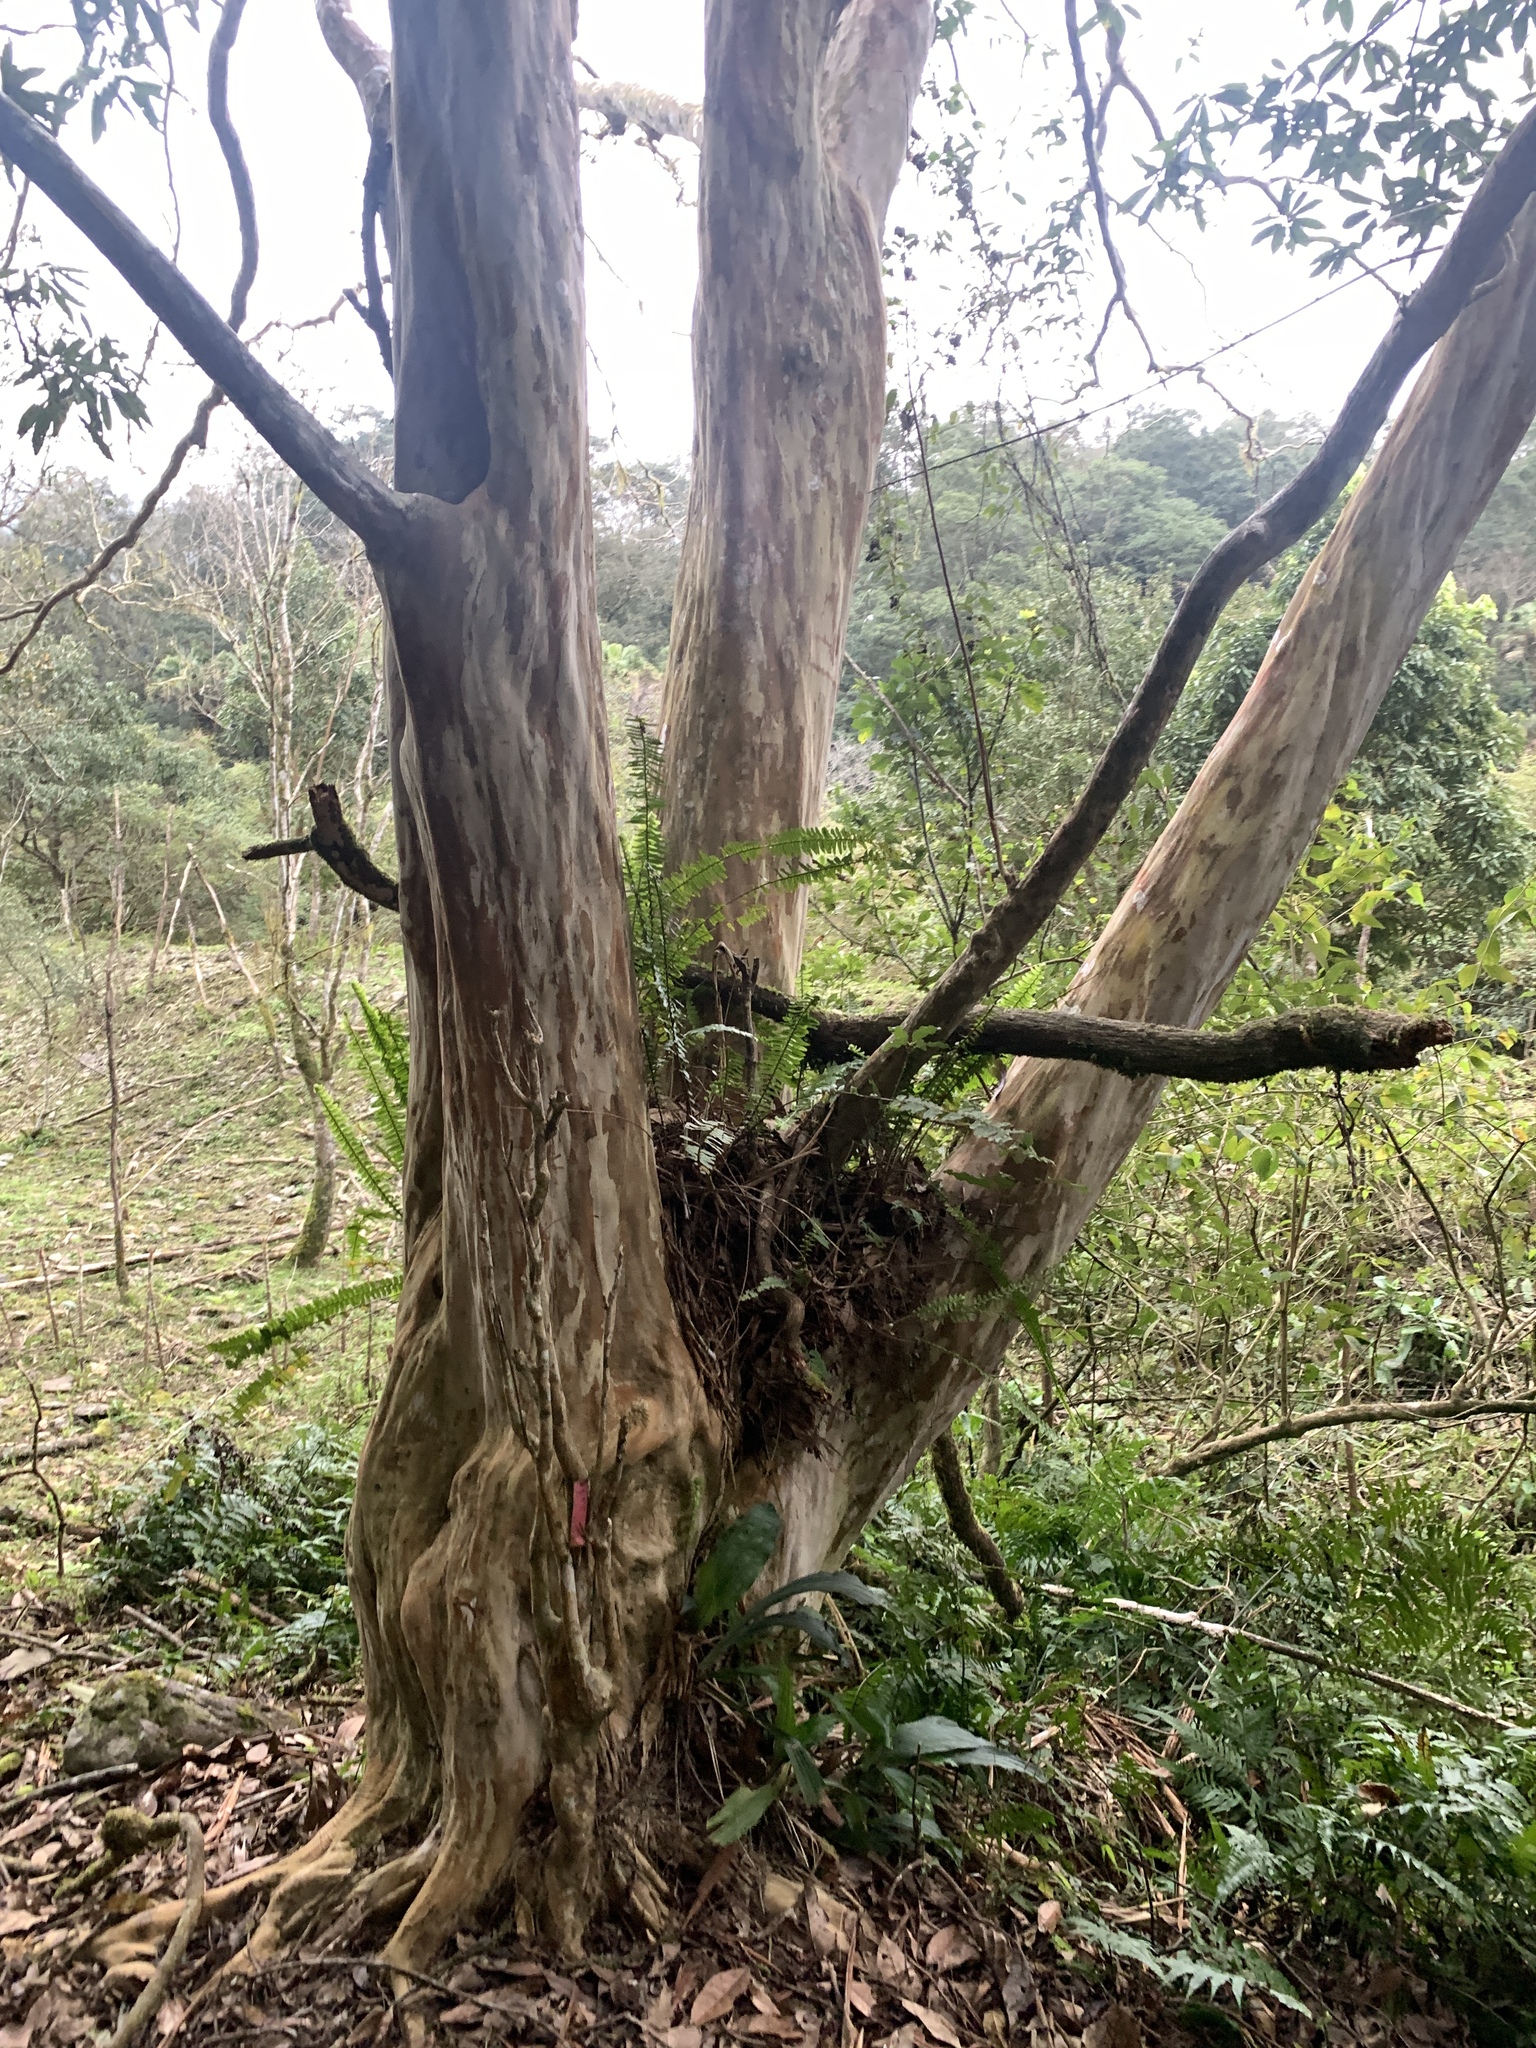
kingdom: Plantae
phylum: Tracheophyta
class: Magnoliopsida
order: Myrtales
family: Lythraceae
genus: Lagerstroemia
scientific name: Lagerstroemia subcostata
